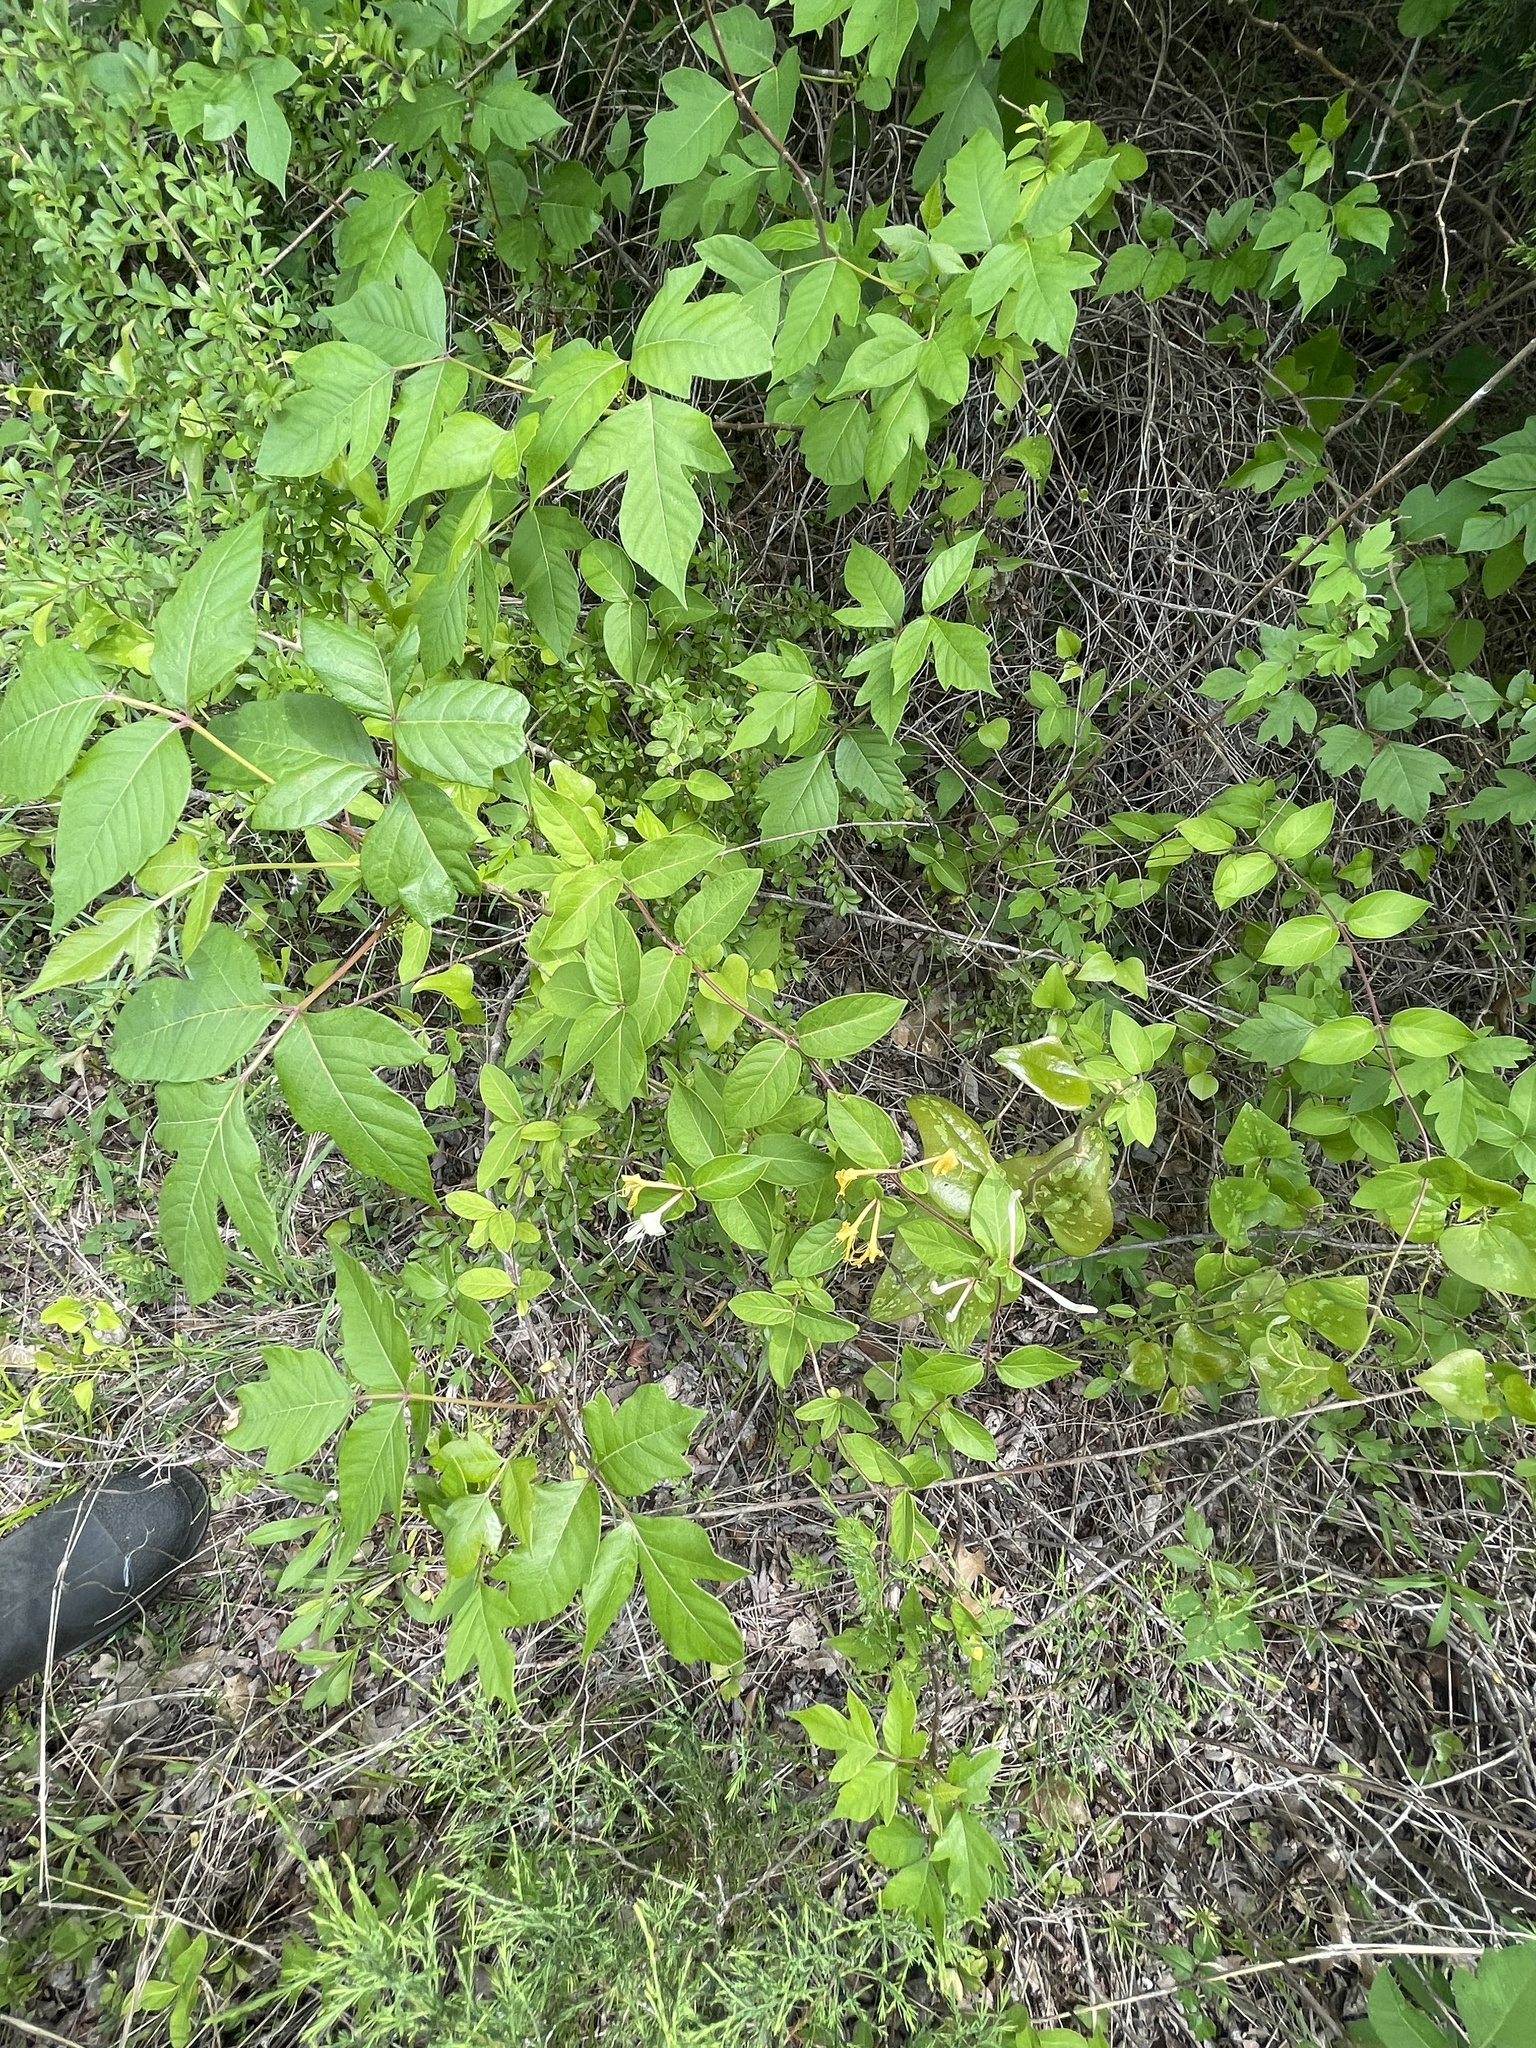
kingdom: Plantae
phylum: Tracheophyta
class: Magnoliopsida
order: Dipsacales
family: Caprifoliaceae
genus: Lonicera
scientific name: Lonicera japonica
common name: Japanese honeysuckle
